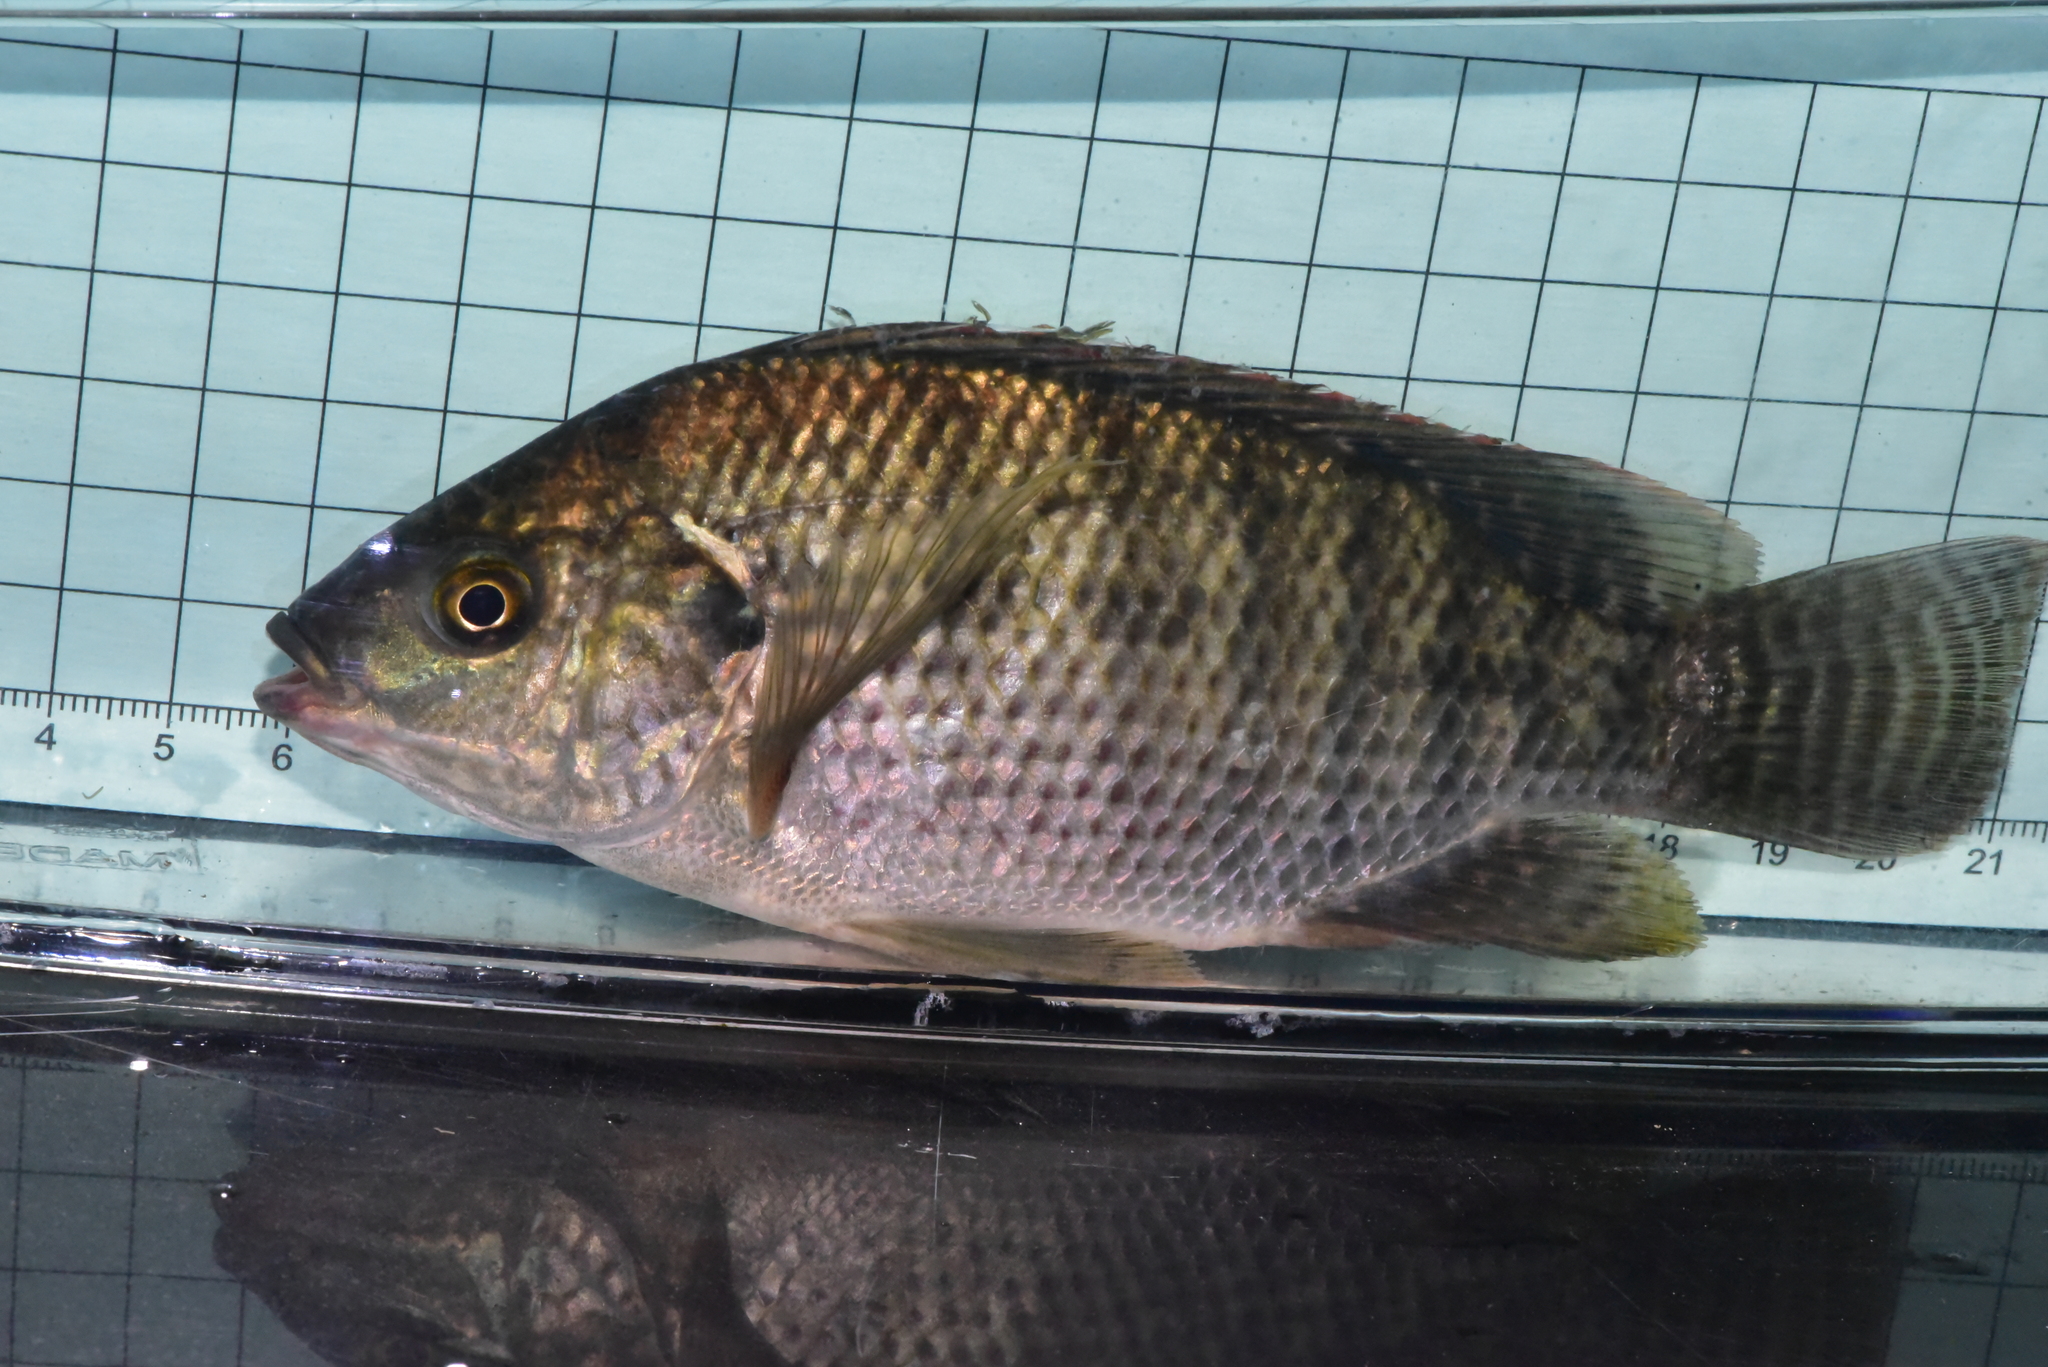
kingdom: Animalia
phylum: Chordata
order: Perciformes
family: Cichlidae
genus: Oreochromis
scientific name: Oreochromis niloticus
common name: Nile tilapia
